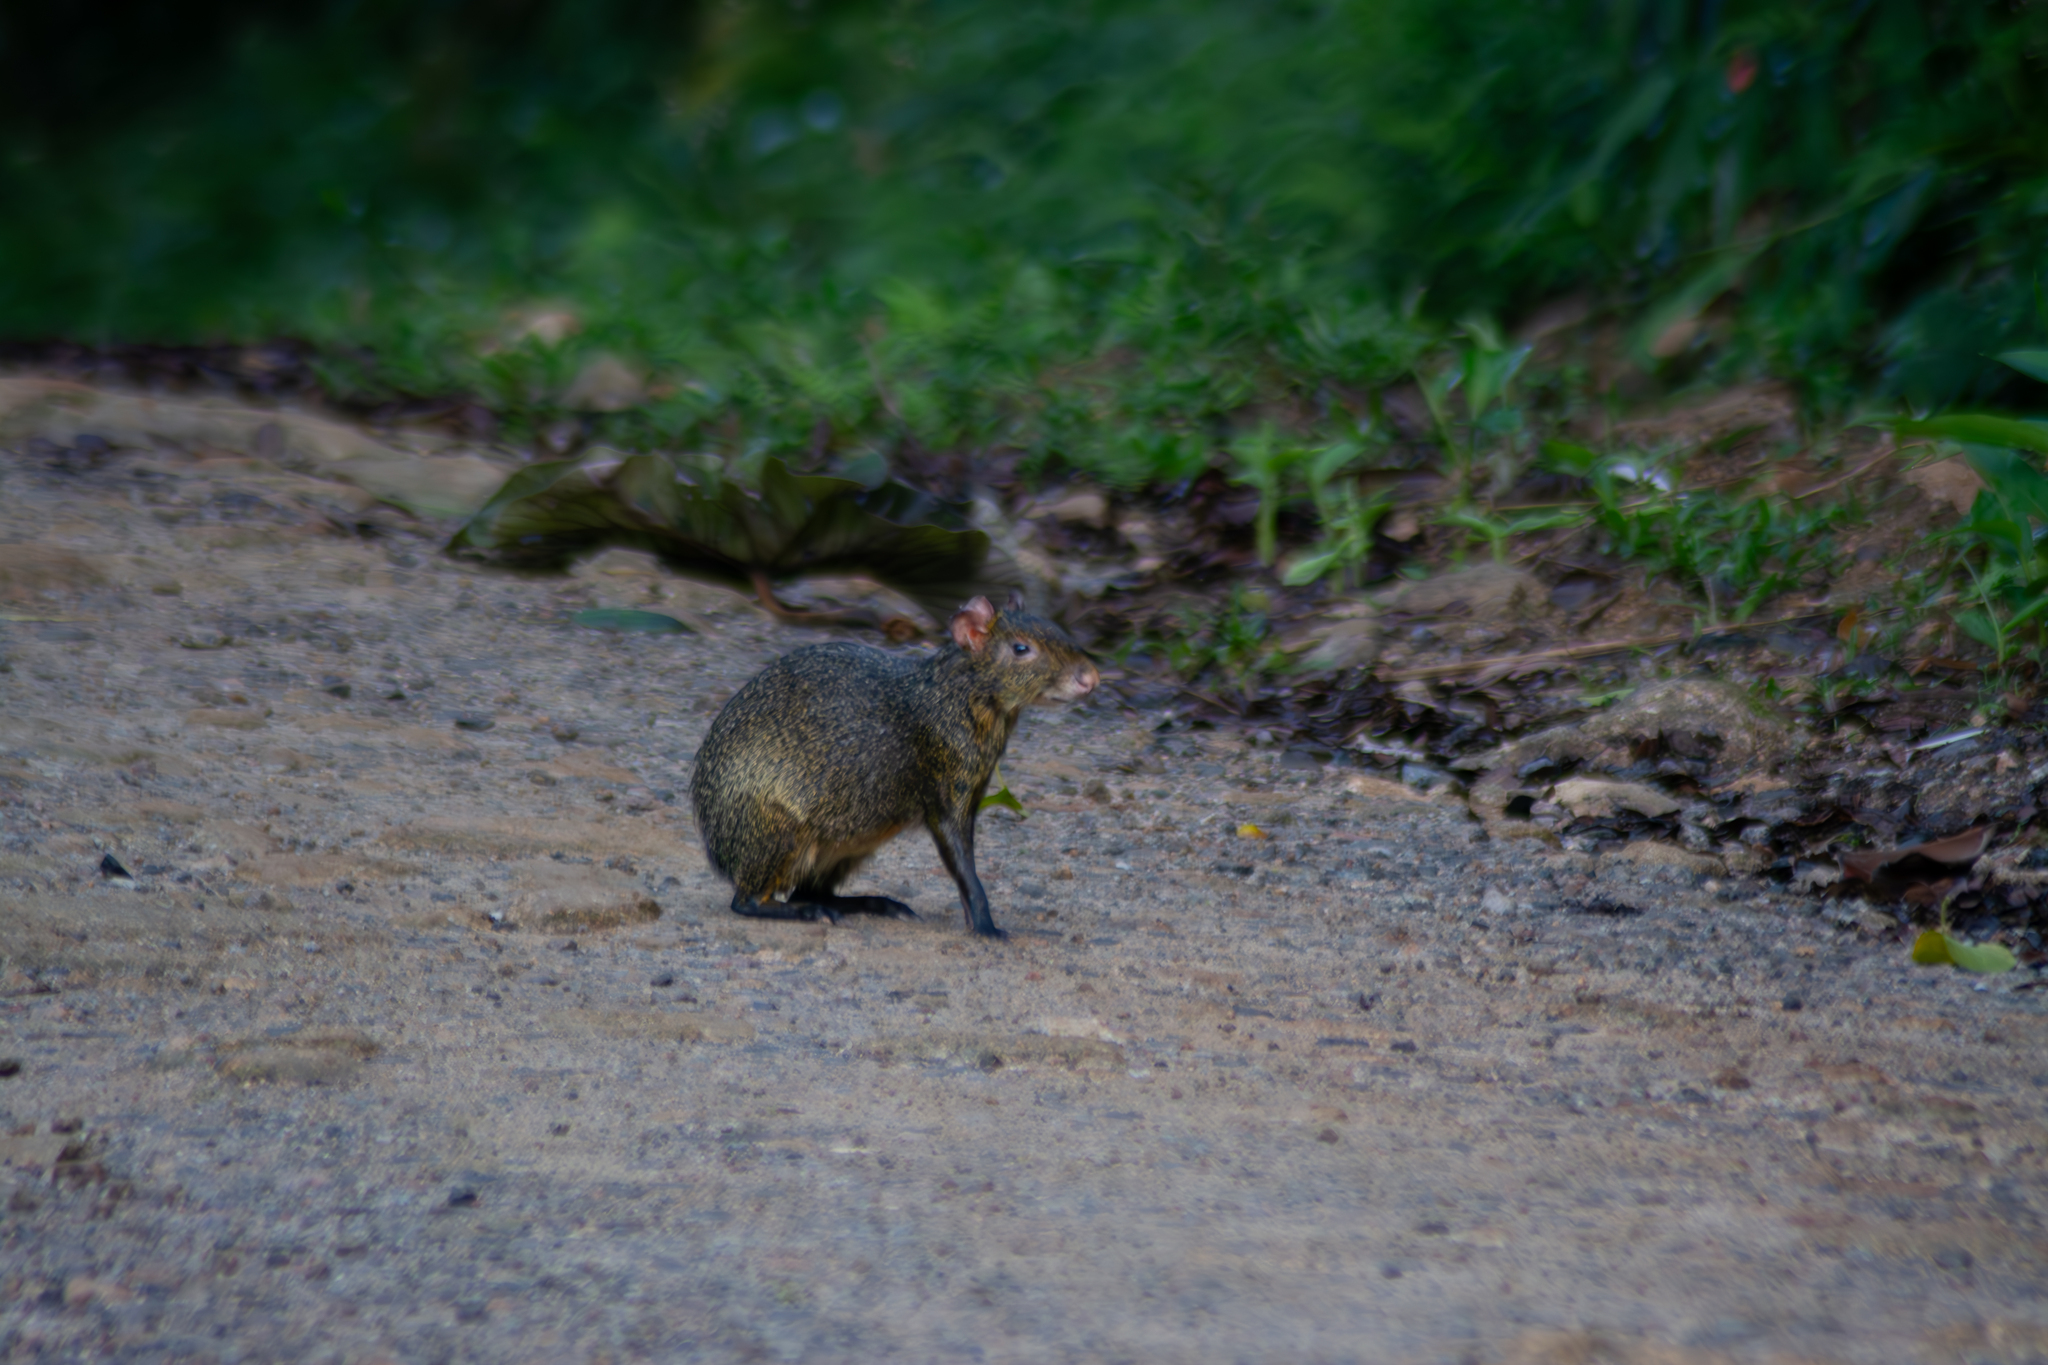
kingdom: Animalia
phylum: Chordata
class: Mammalia
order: Rodentia
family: Dasyproctidae
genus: Dasyprocta
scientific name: Dasyprocta azarae
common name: Azara's agouti
